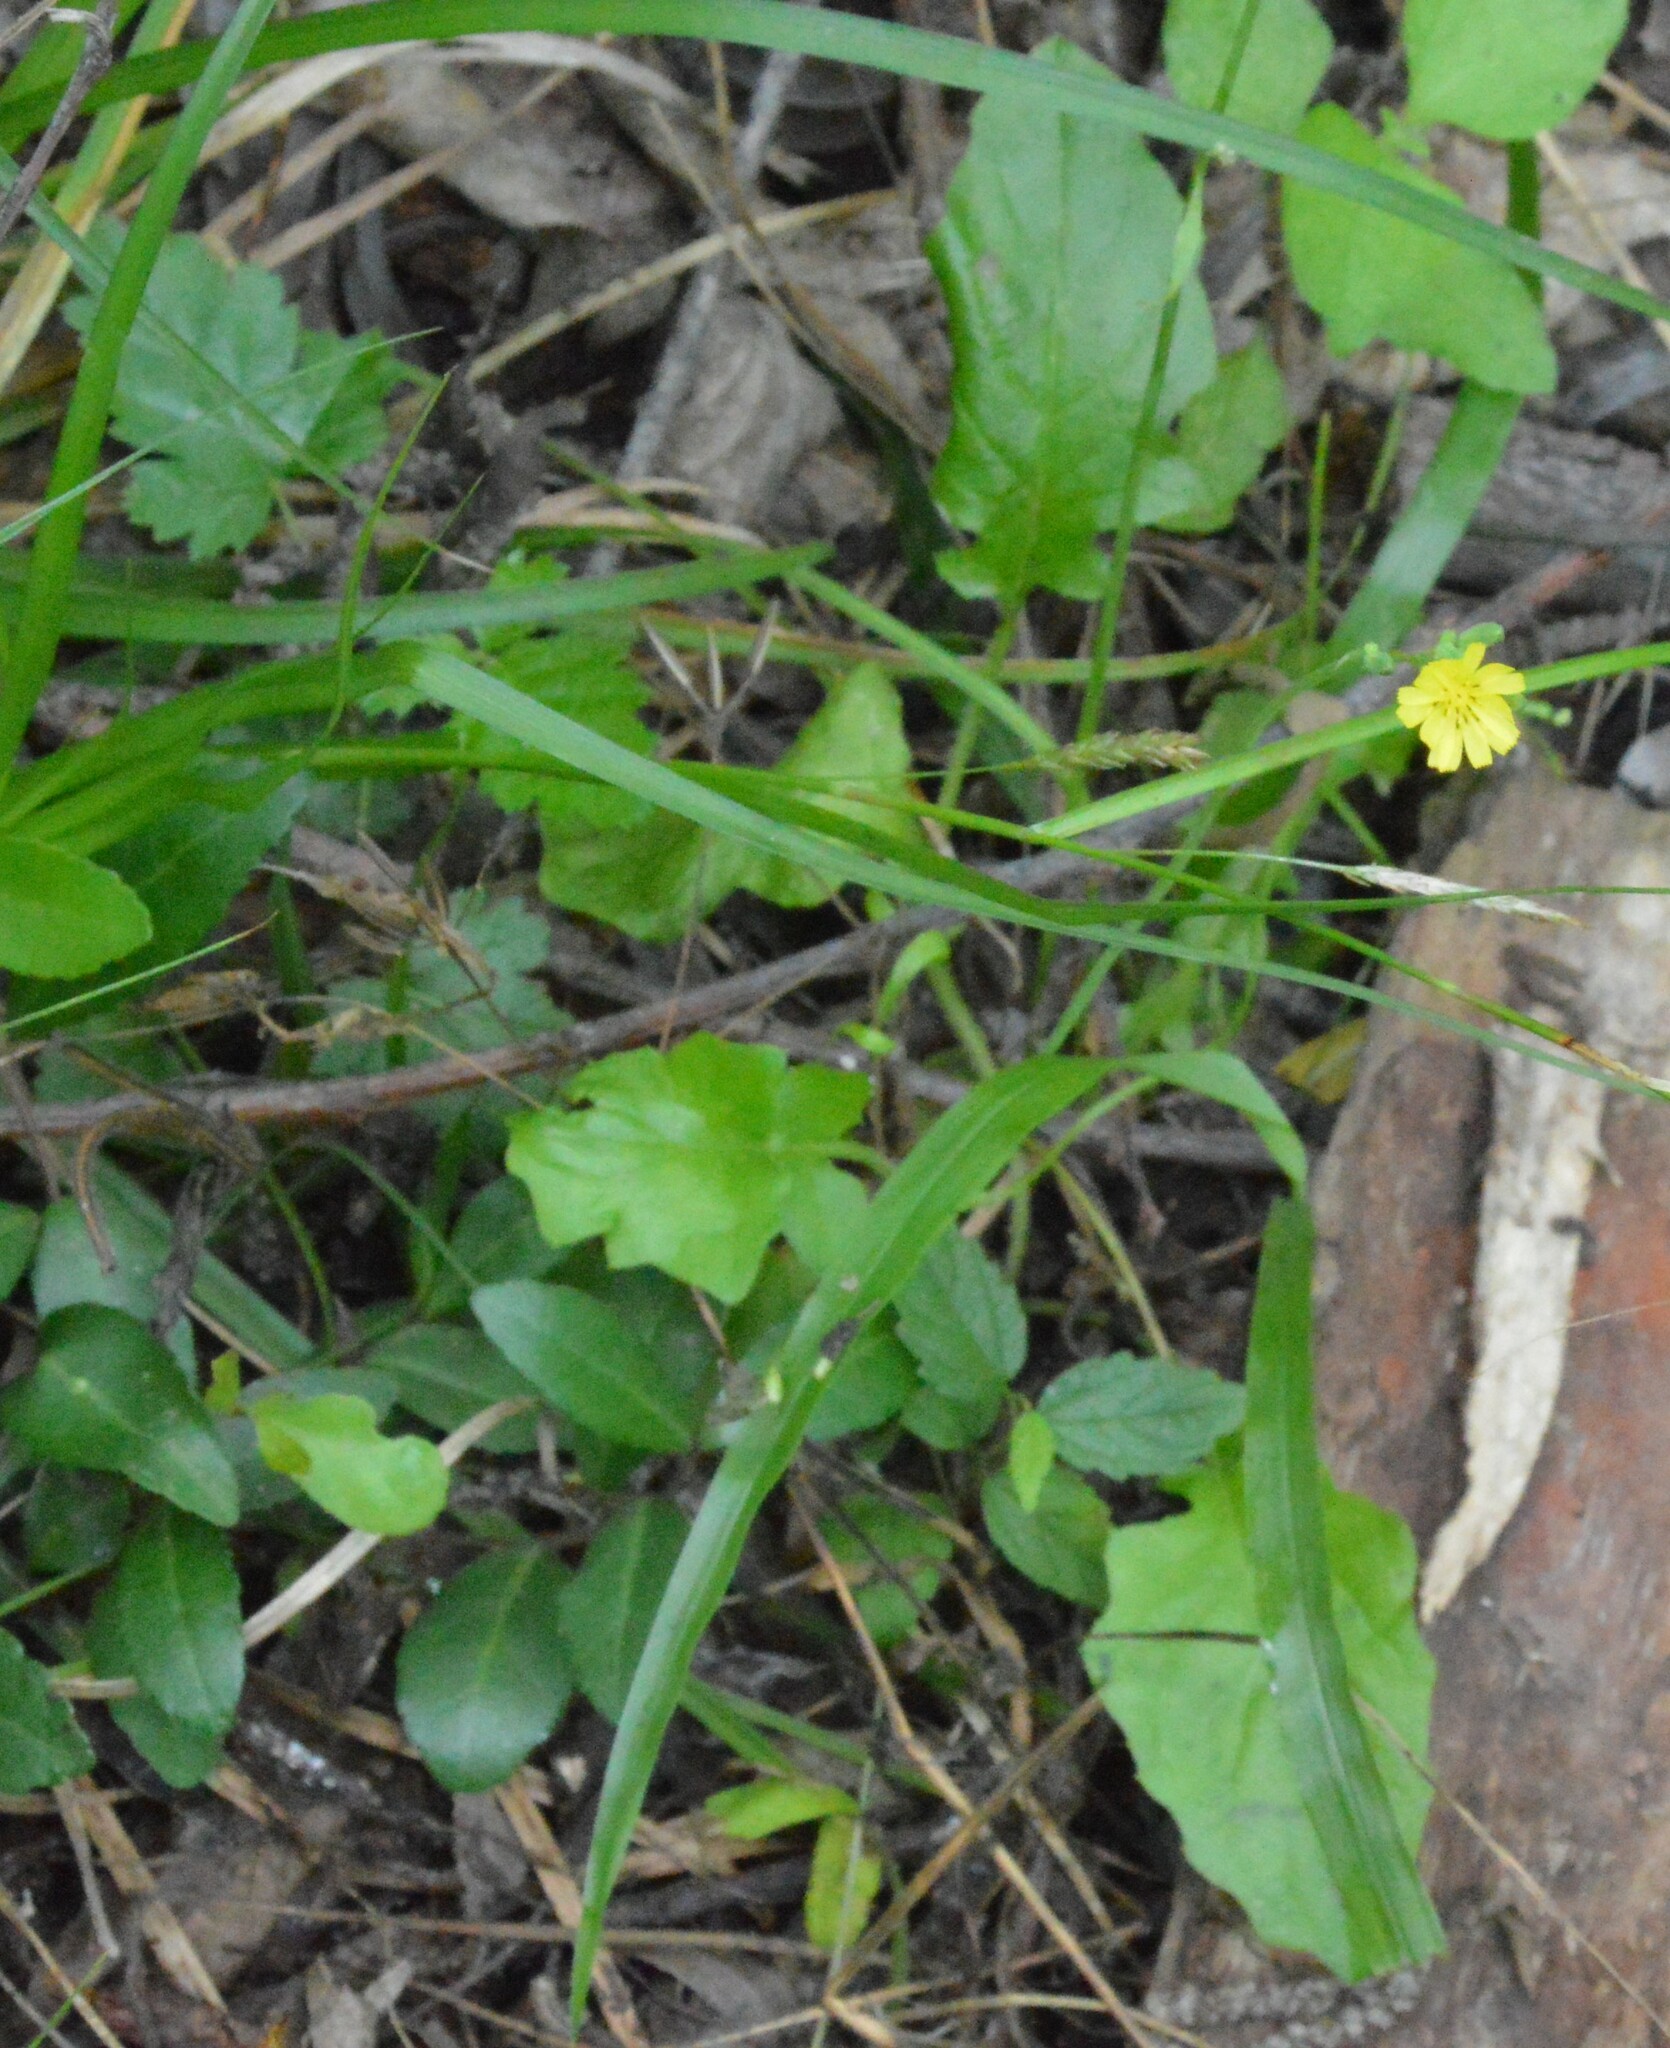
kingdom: Plantae
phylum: Tracheophyta
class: Magnoliopsida
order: Asterales
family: Asteraceae
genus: Youngia
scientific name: Youngia japonica
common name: Oriental false hawksbeard
